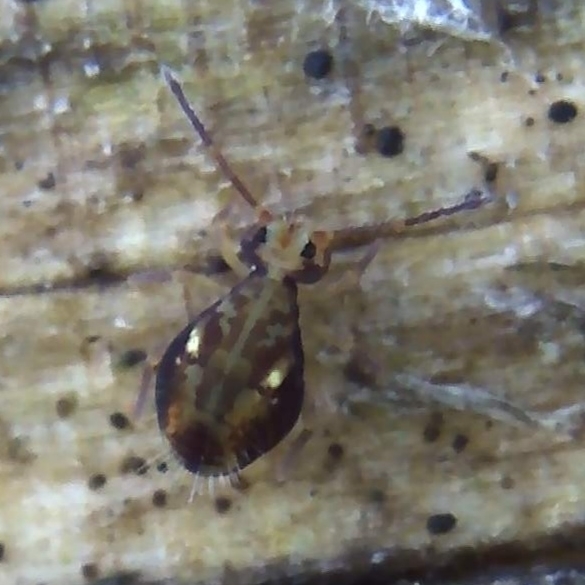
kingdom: Animalia
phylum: Arthropoda
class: Collembola
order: Symphypleona
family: Dicyrtomidae
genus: Dicyrtomina
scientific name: Dicyrtomina saundersi
